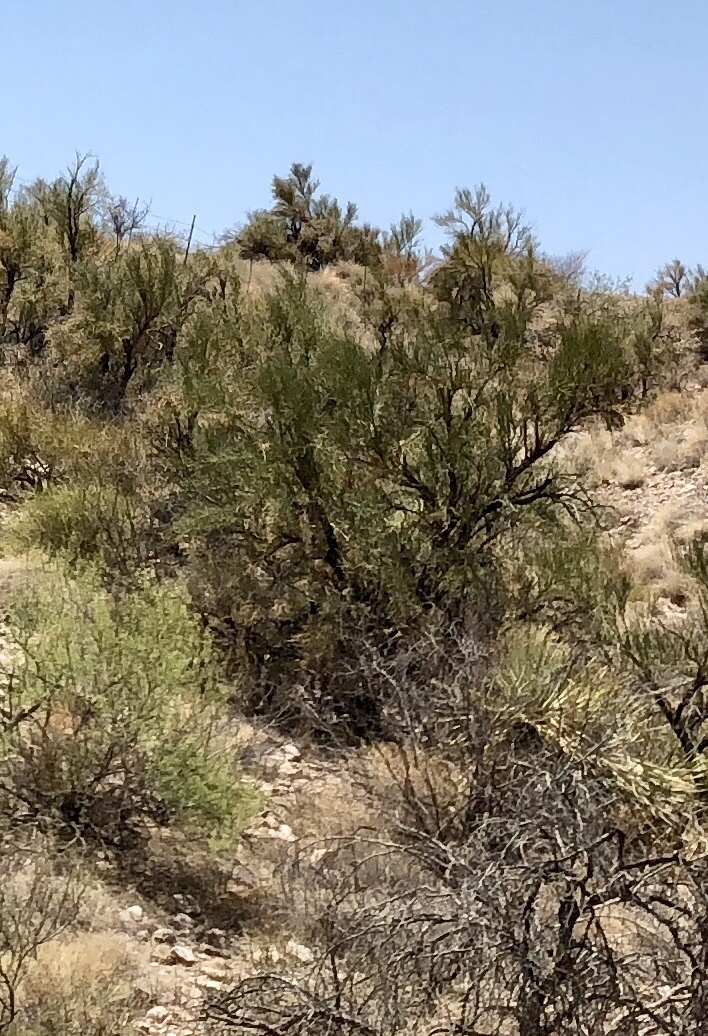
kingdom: Plantae
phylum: Tracheophyta
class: Magnoliopsida
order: Celastrales
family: Celastraceae
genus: Canotia
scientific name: Canotia holacantha
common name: Crucifixion thorns
